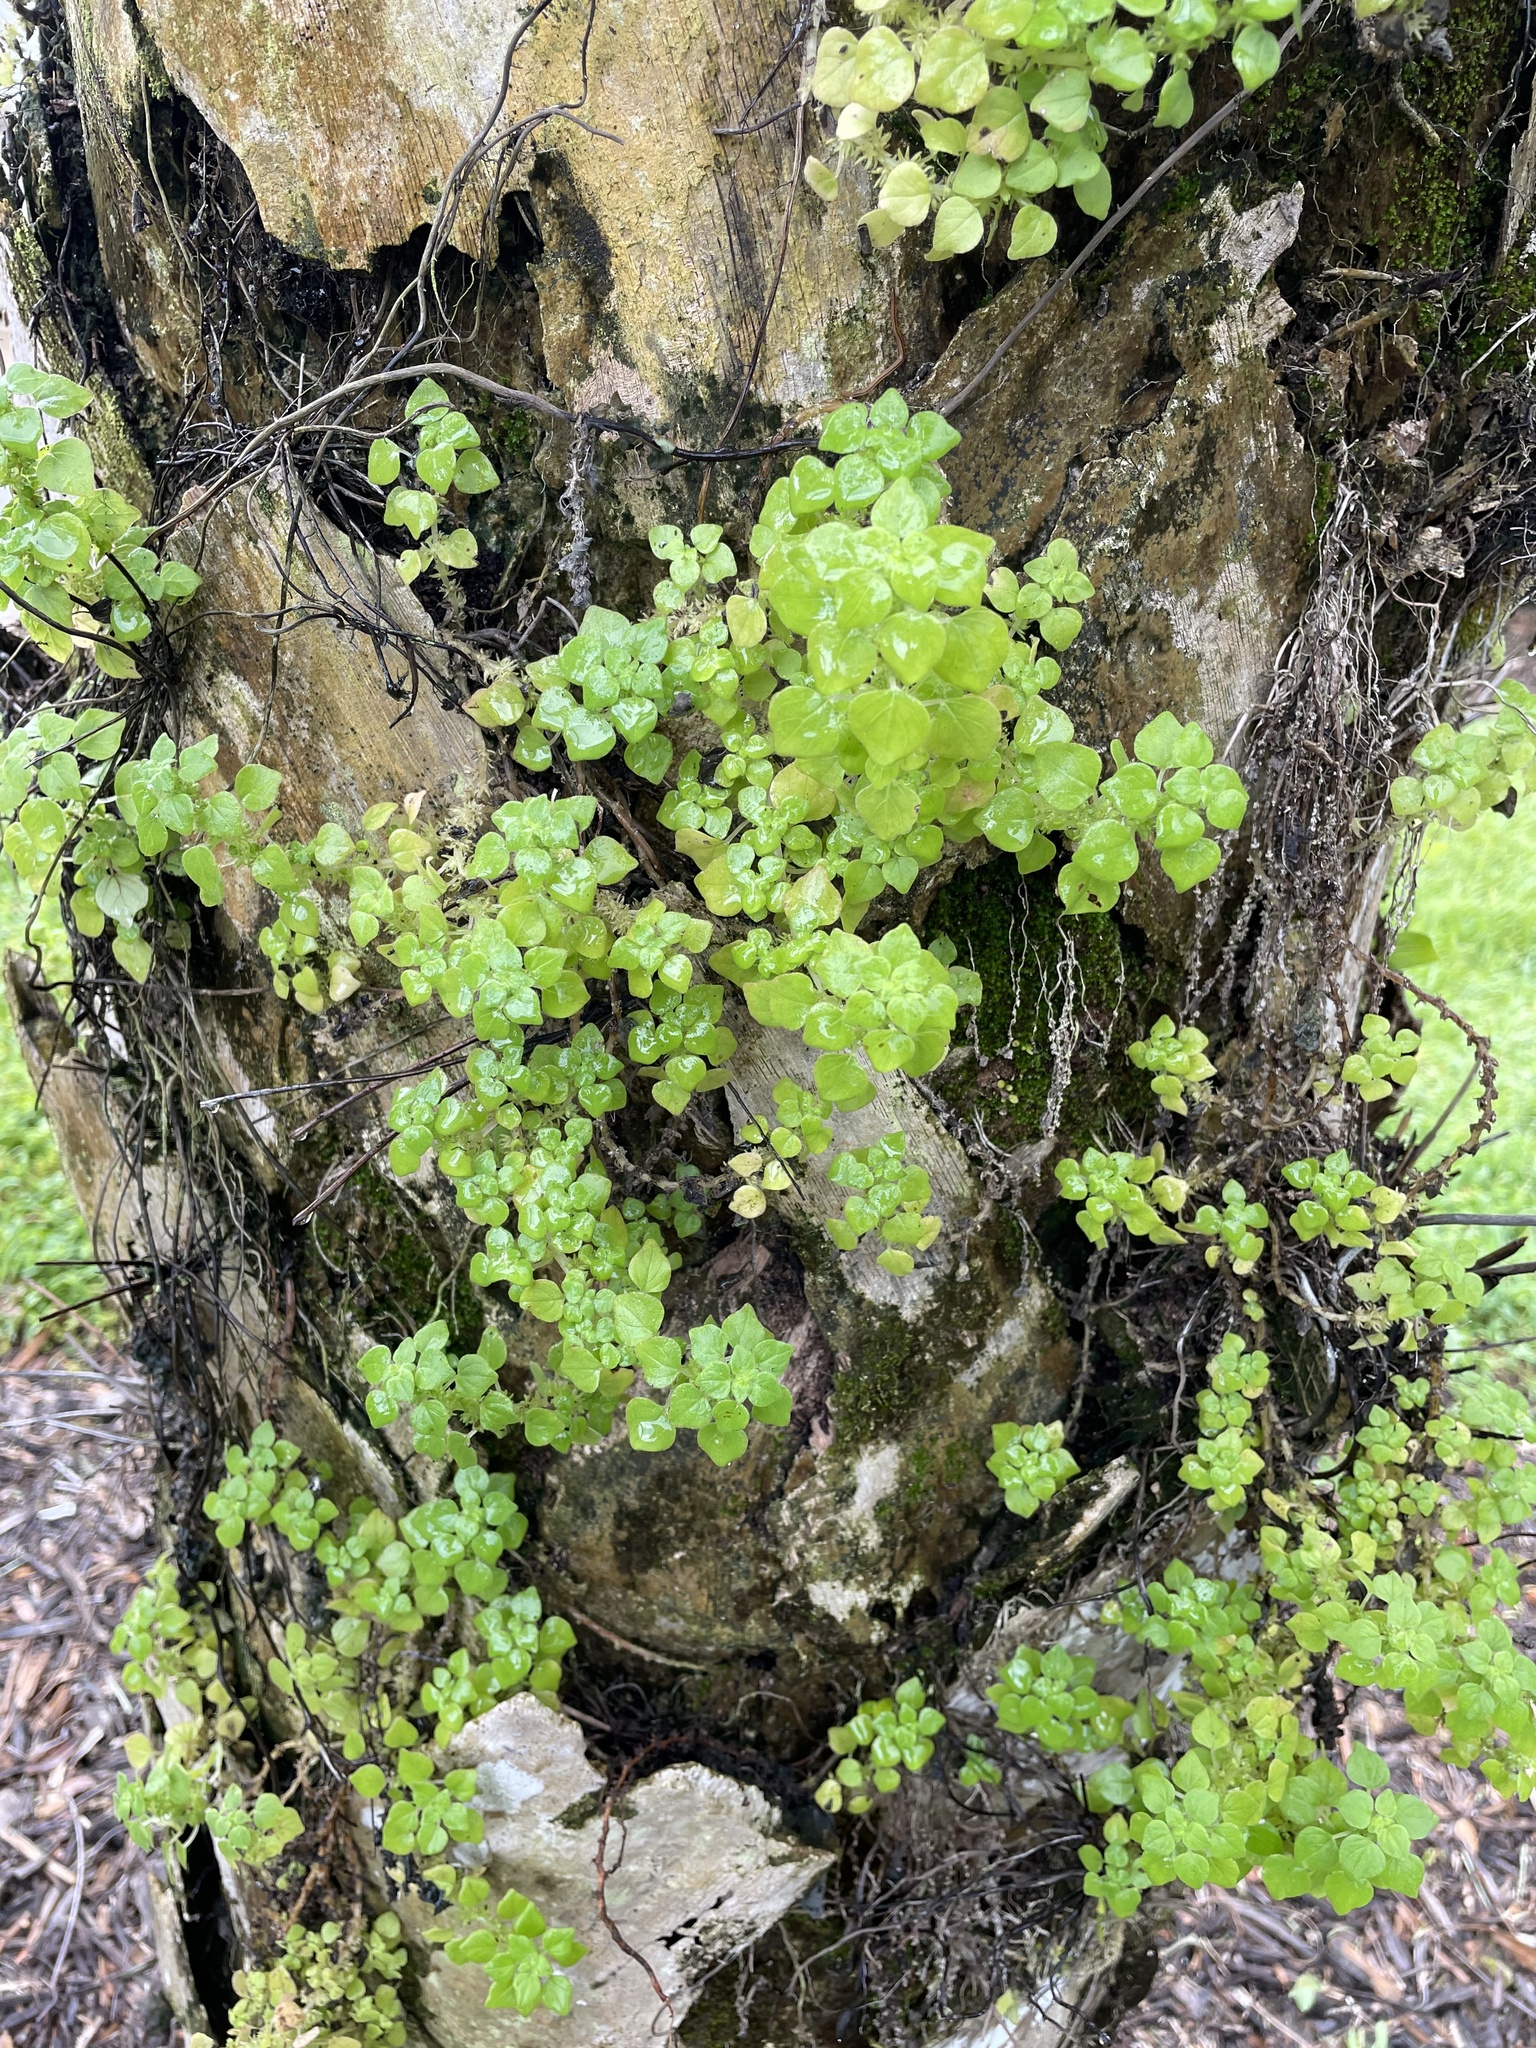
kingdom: Plantae
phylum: Tracheophyta
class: Magnoliopsida
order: Rosales
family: Urticaceae
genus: Parietaria
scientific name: Parietaria floridana
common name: Florida pellitory
